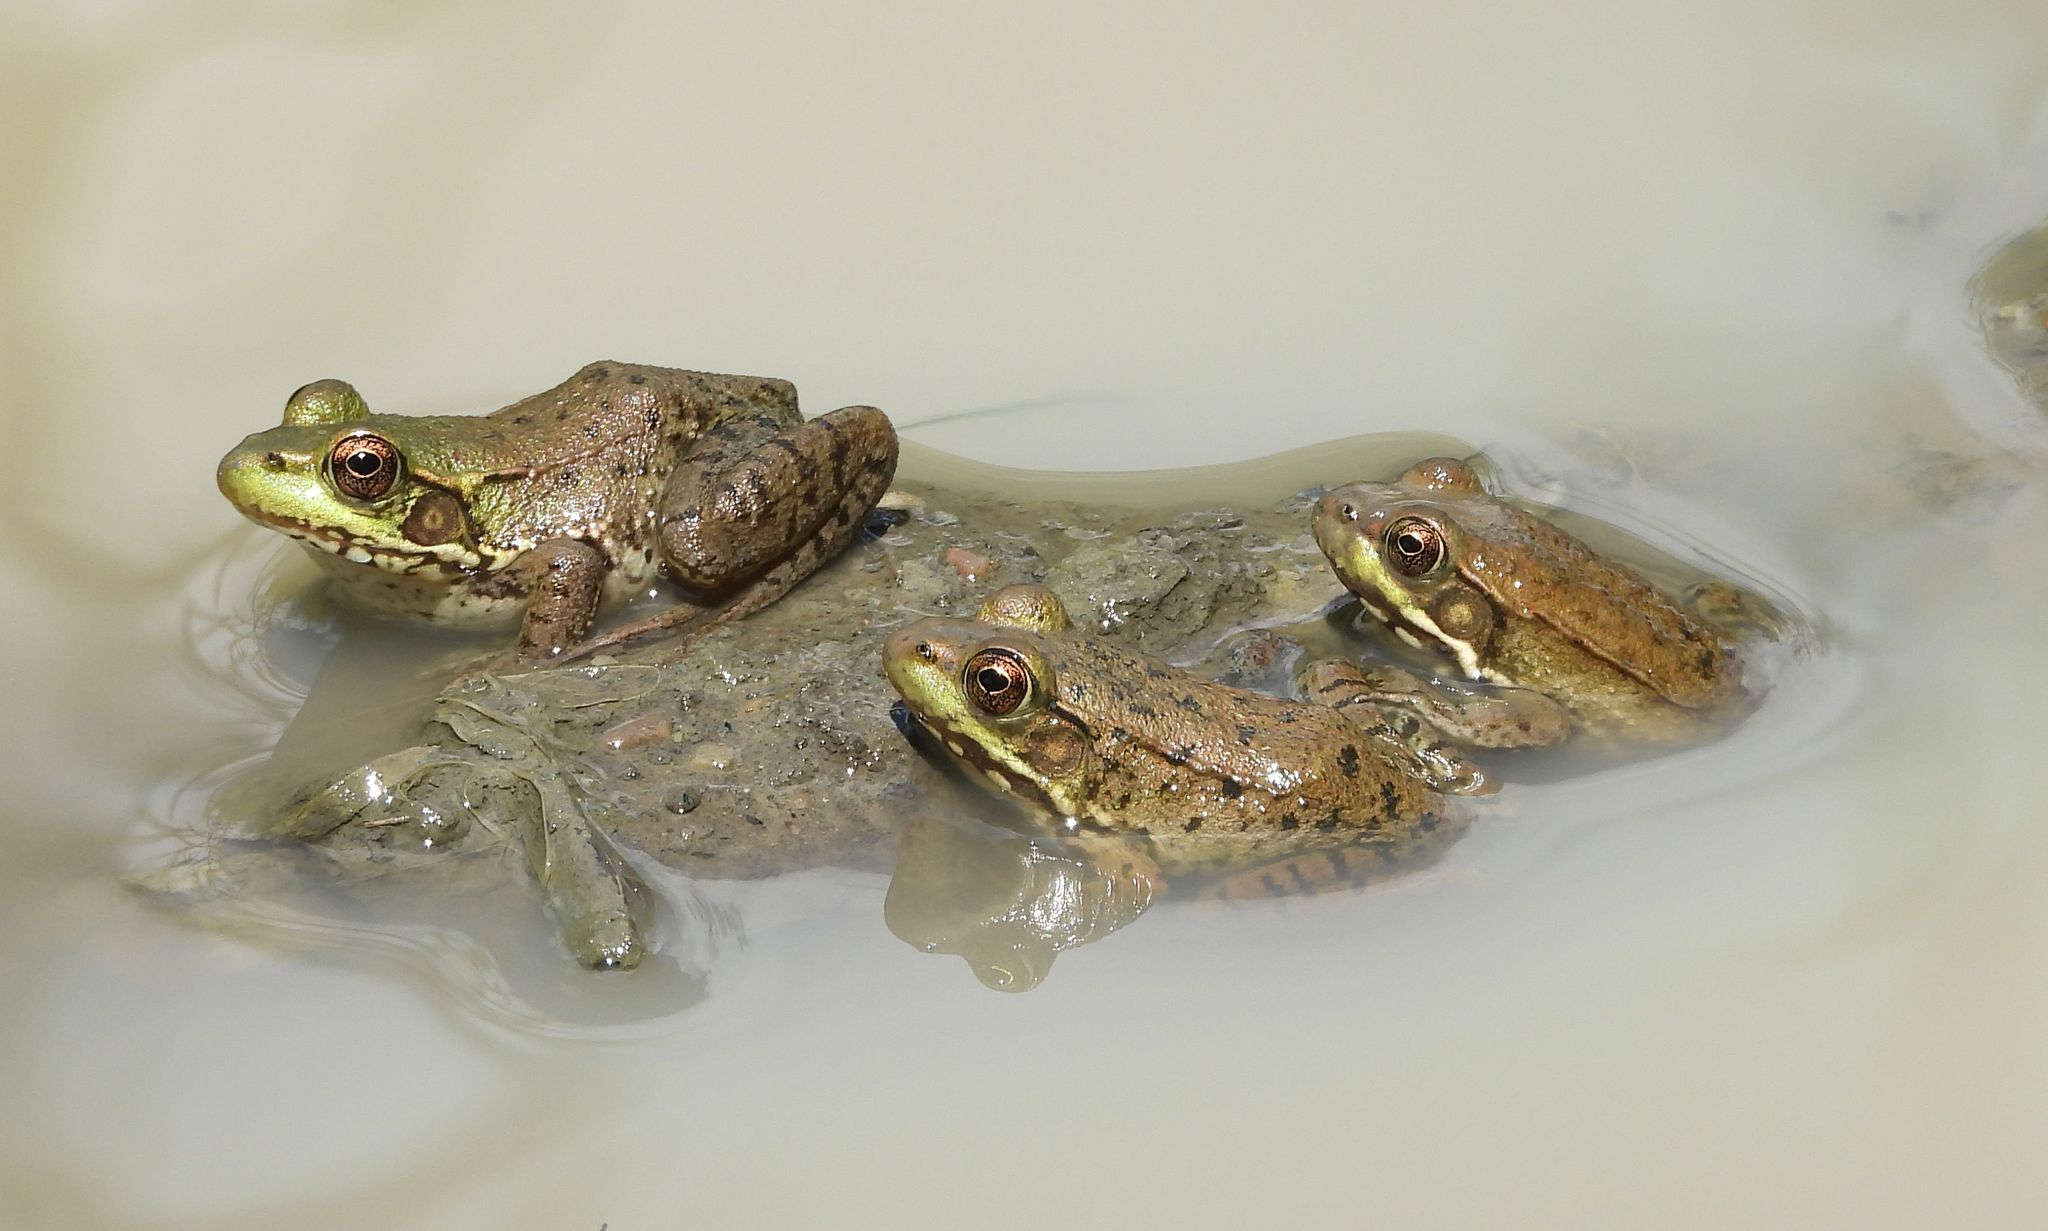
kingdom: Animalia
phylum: Chordata
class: Amphibia
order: Anura
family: Ranidae
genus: Lithobates
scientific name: Lithobates clamitans
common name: Green frog
